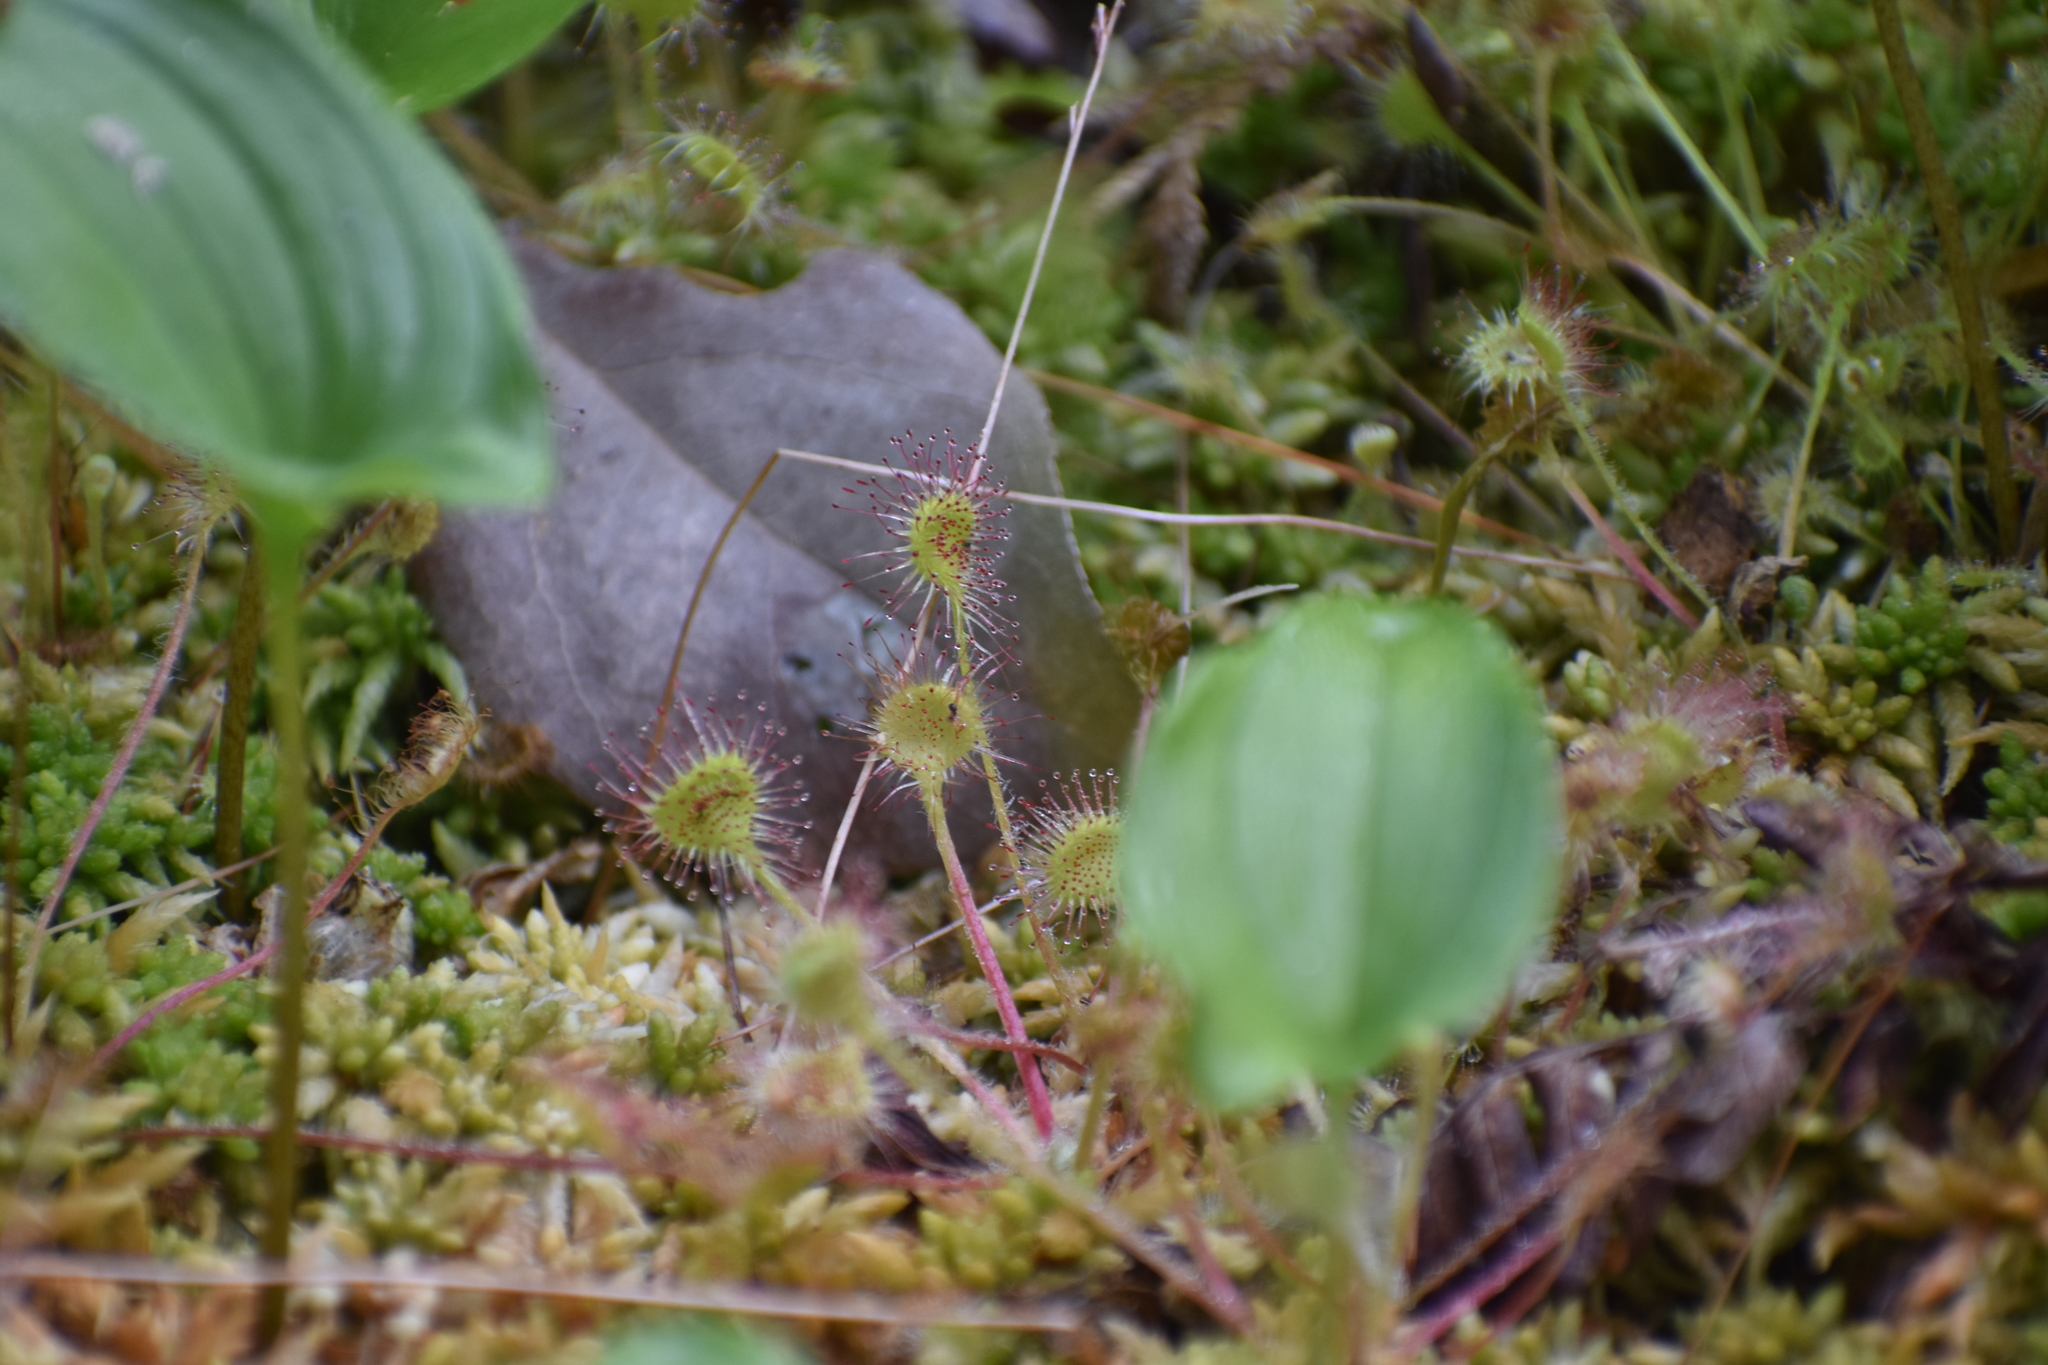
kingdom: Plantae
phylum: Tracheophyta
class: Magnoliopsida
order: Caryophyllales
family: Droseraceae
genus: Drosera
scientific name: Drosera rotundifolia
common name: Round-leaved sundew
